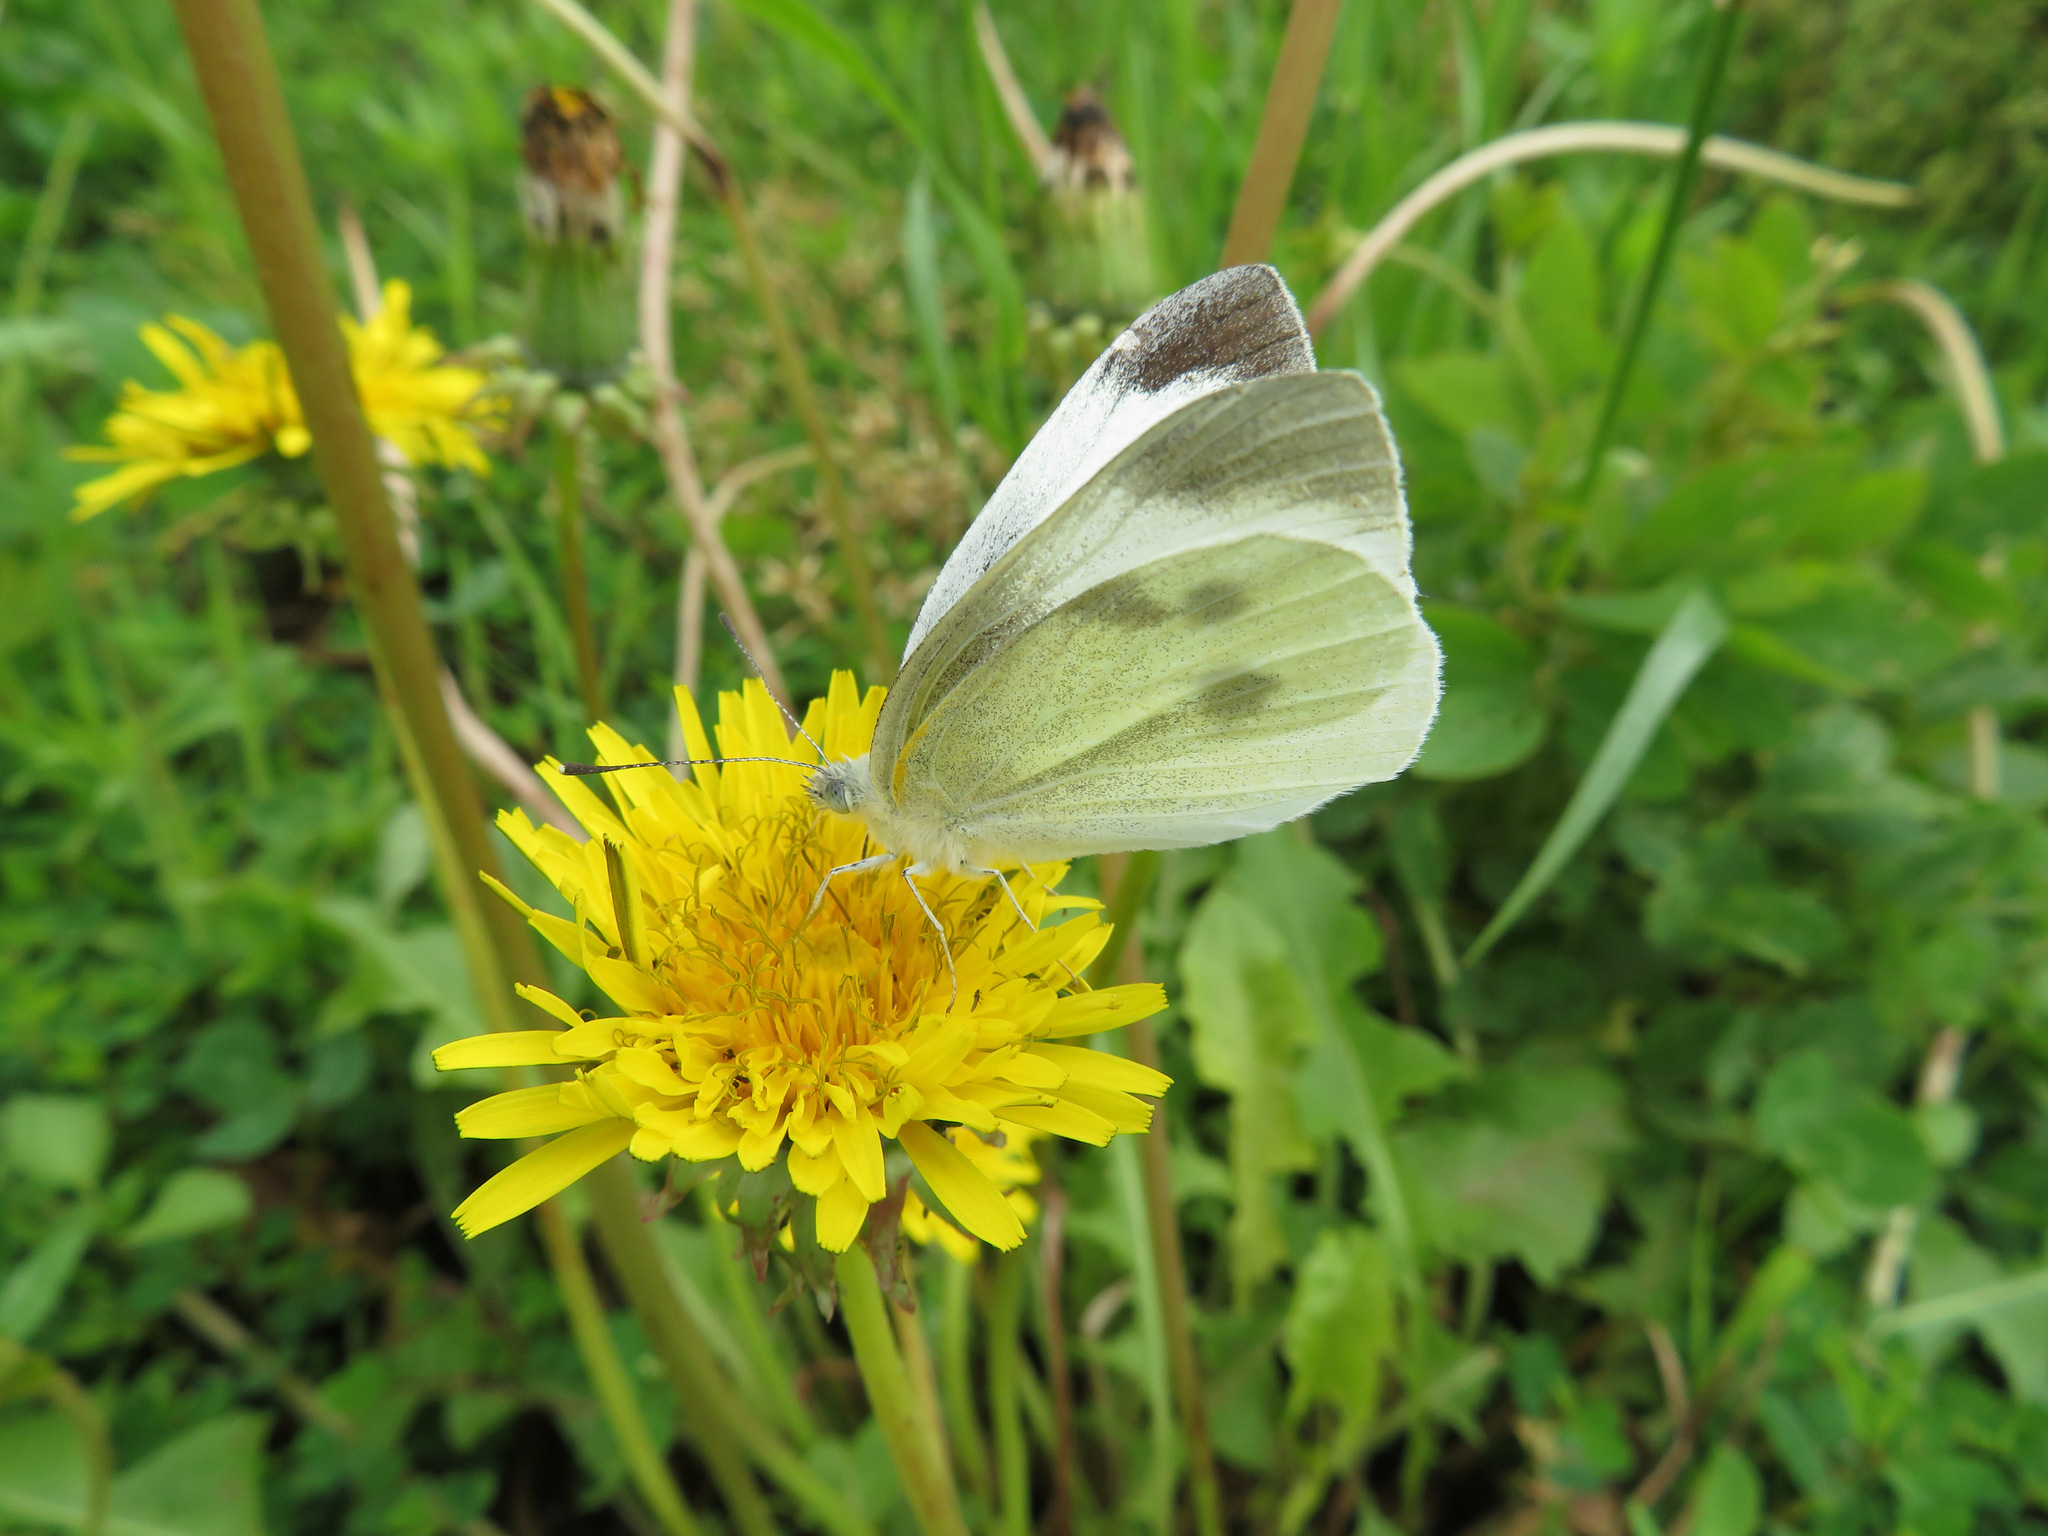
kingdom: Animalia
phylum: Arthropoda
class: Insecta
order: Lepidoptera
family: Pieridae
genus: Pieris
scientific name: Pieris rapae
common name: Small white
